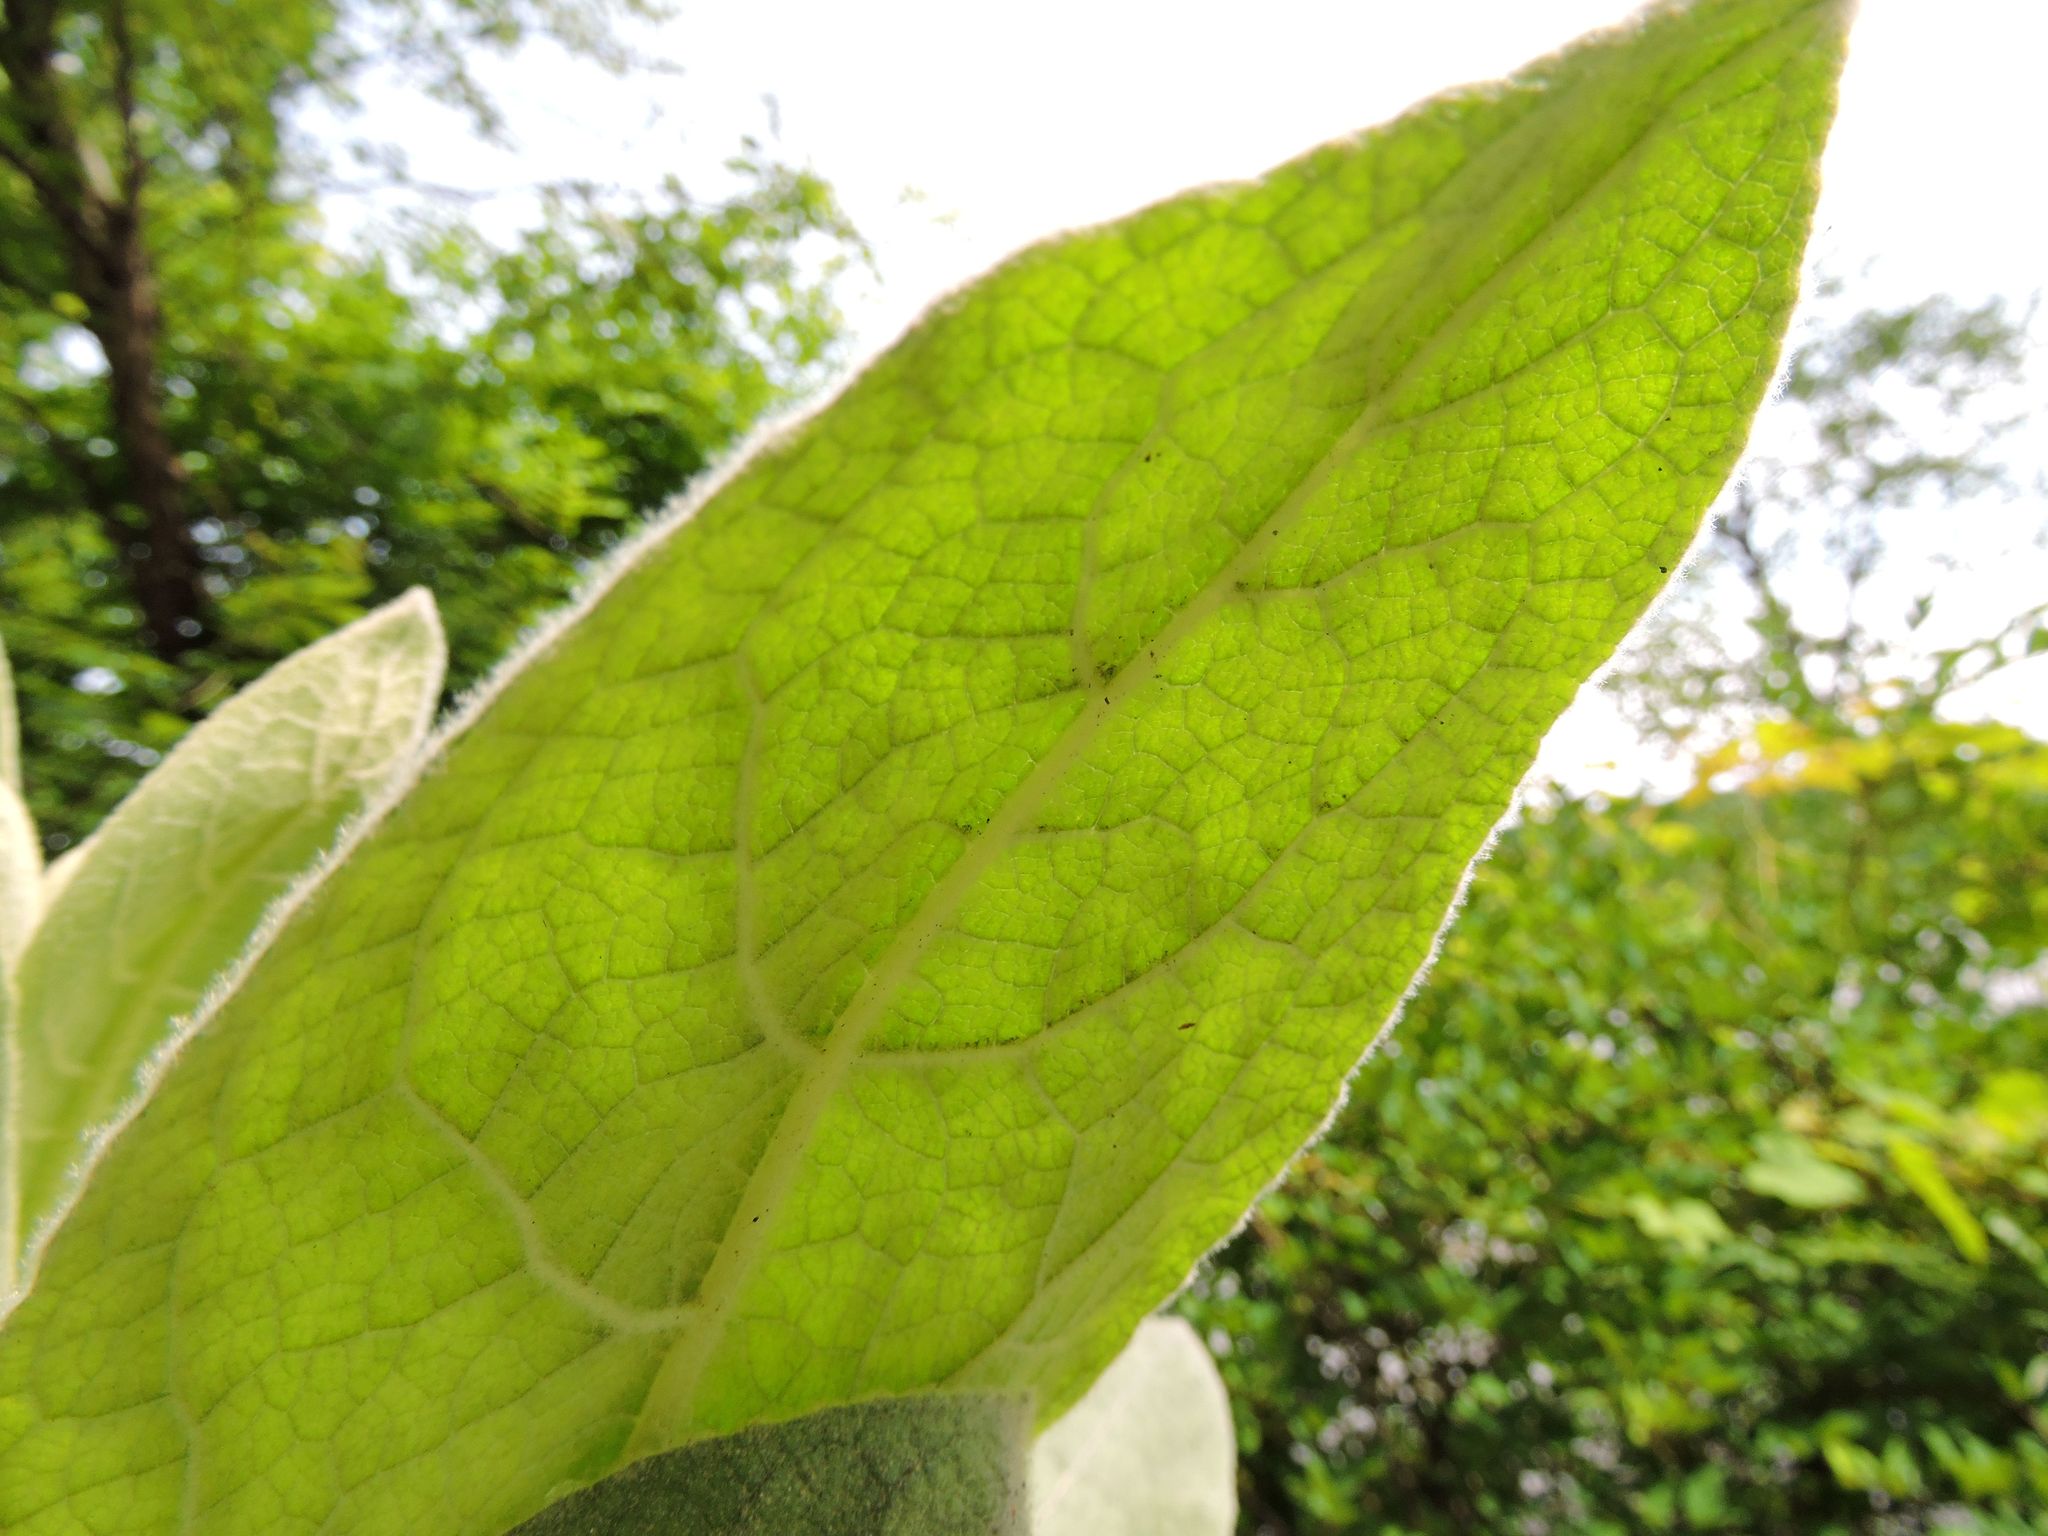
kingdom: Plantae
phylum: Tracheophyta
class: Magnoliopsida
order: Lamiales
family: Scrophulariaceae
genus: Verbascum
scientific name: Verbascum thapsus
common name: Common mullein
